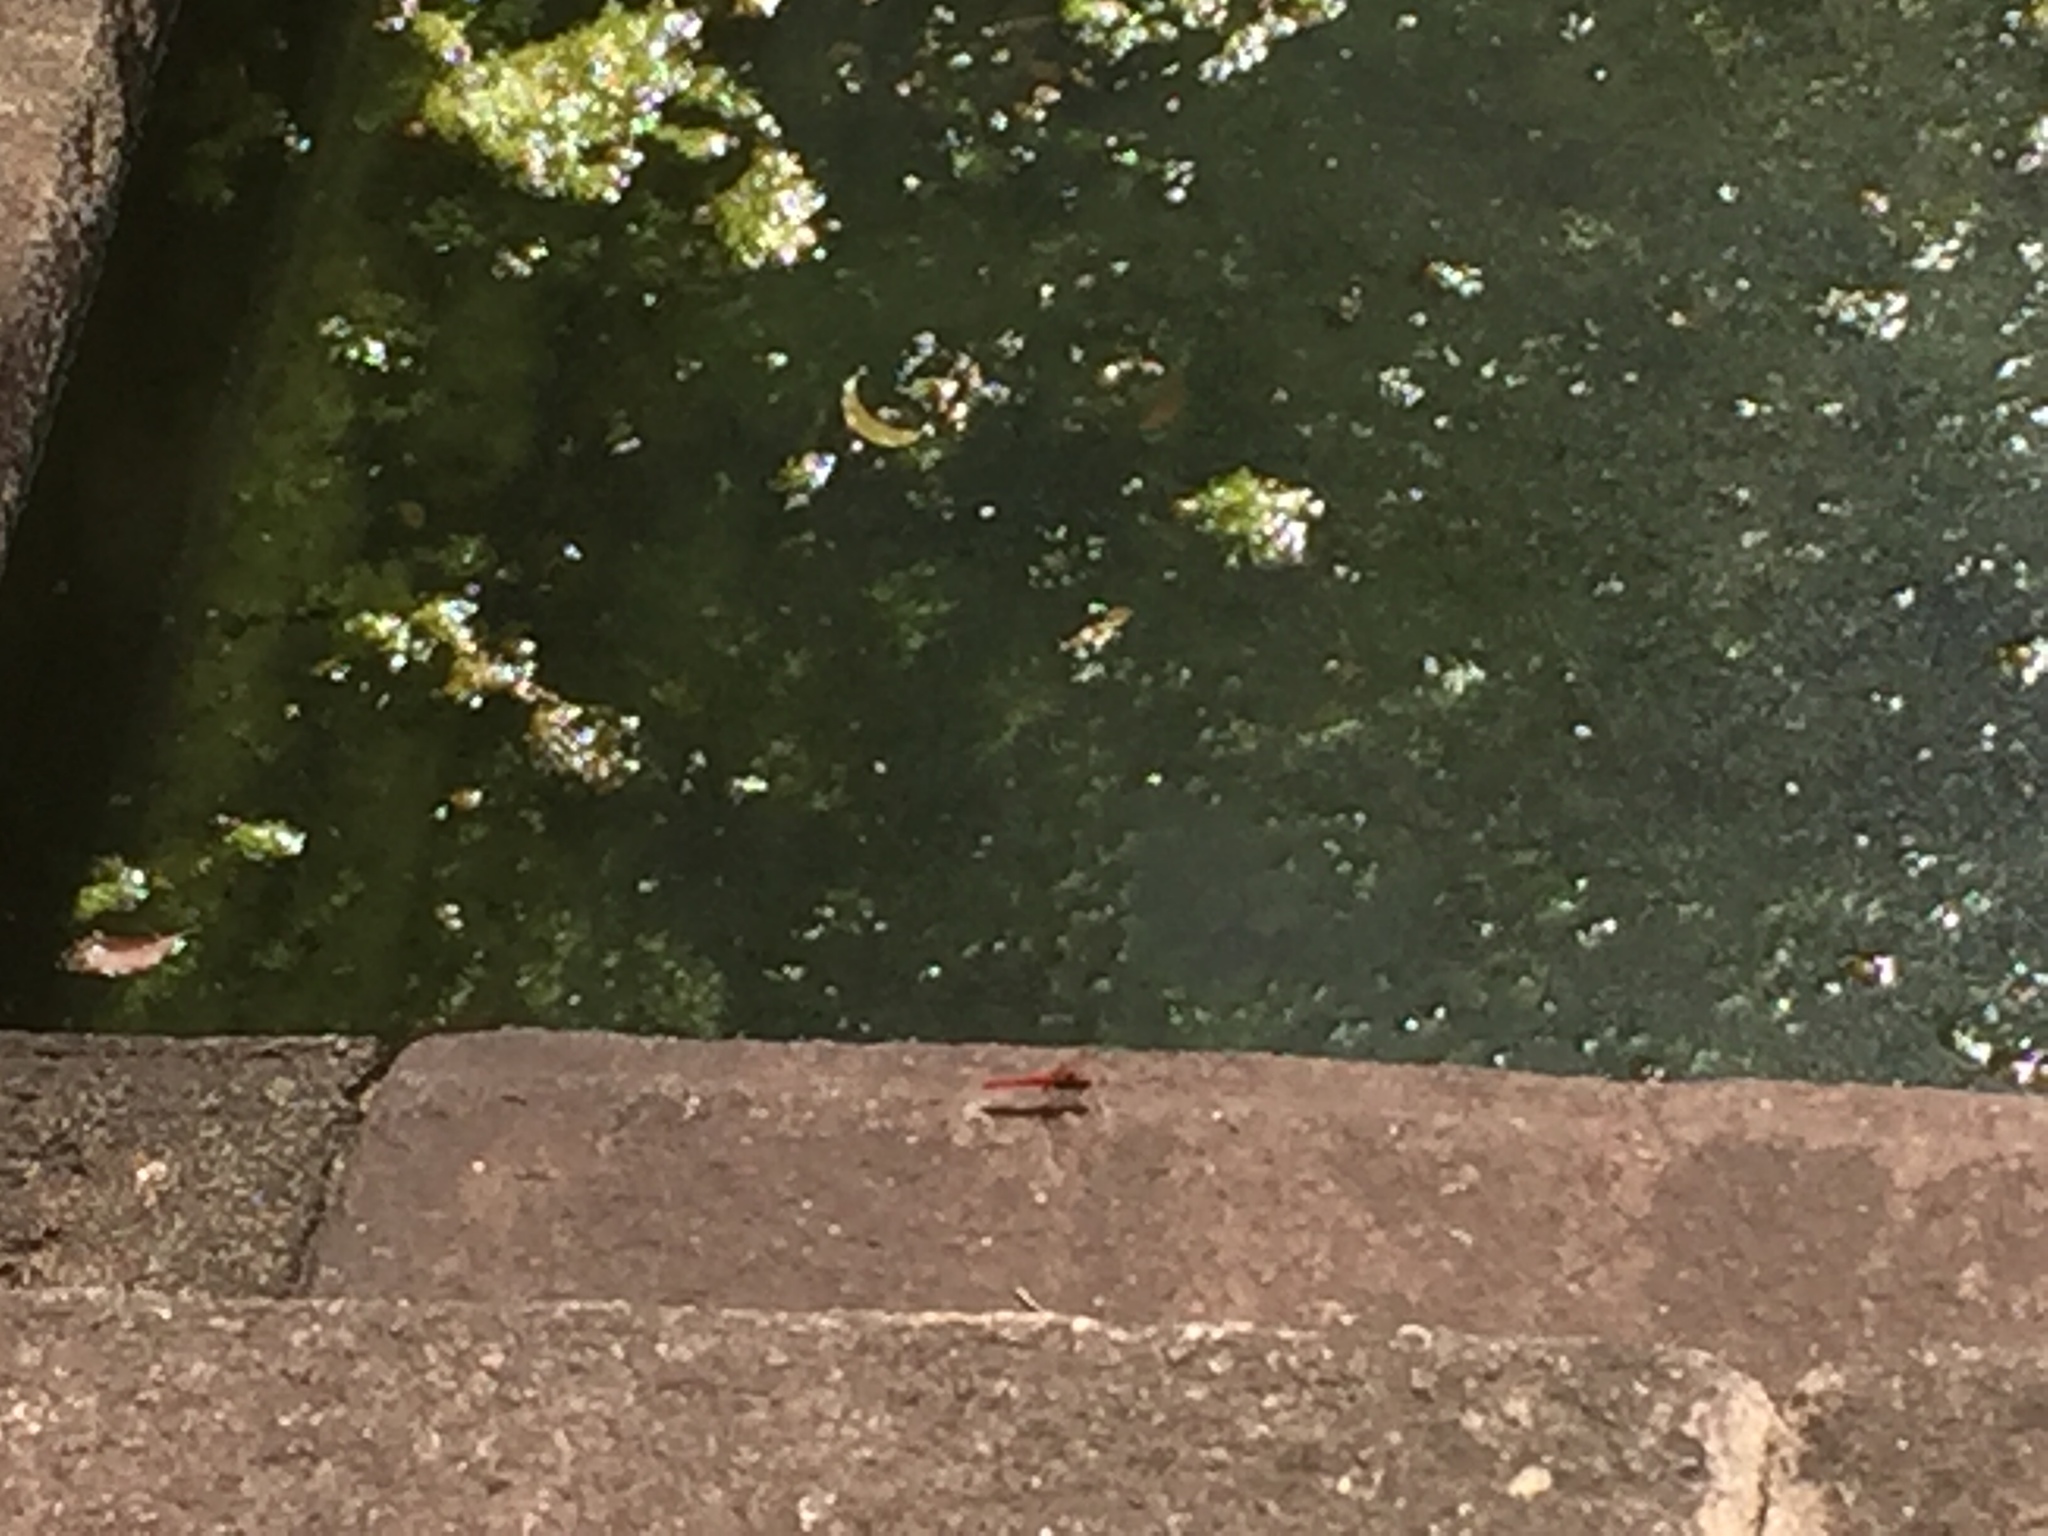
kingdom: Animalia
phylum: Arthropoda
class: Insecta
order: Odonata
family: Libellulidae
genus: Crocothemis
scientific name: Crocothemis servilia
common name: Scarlet skimmer
